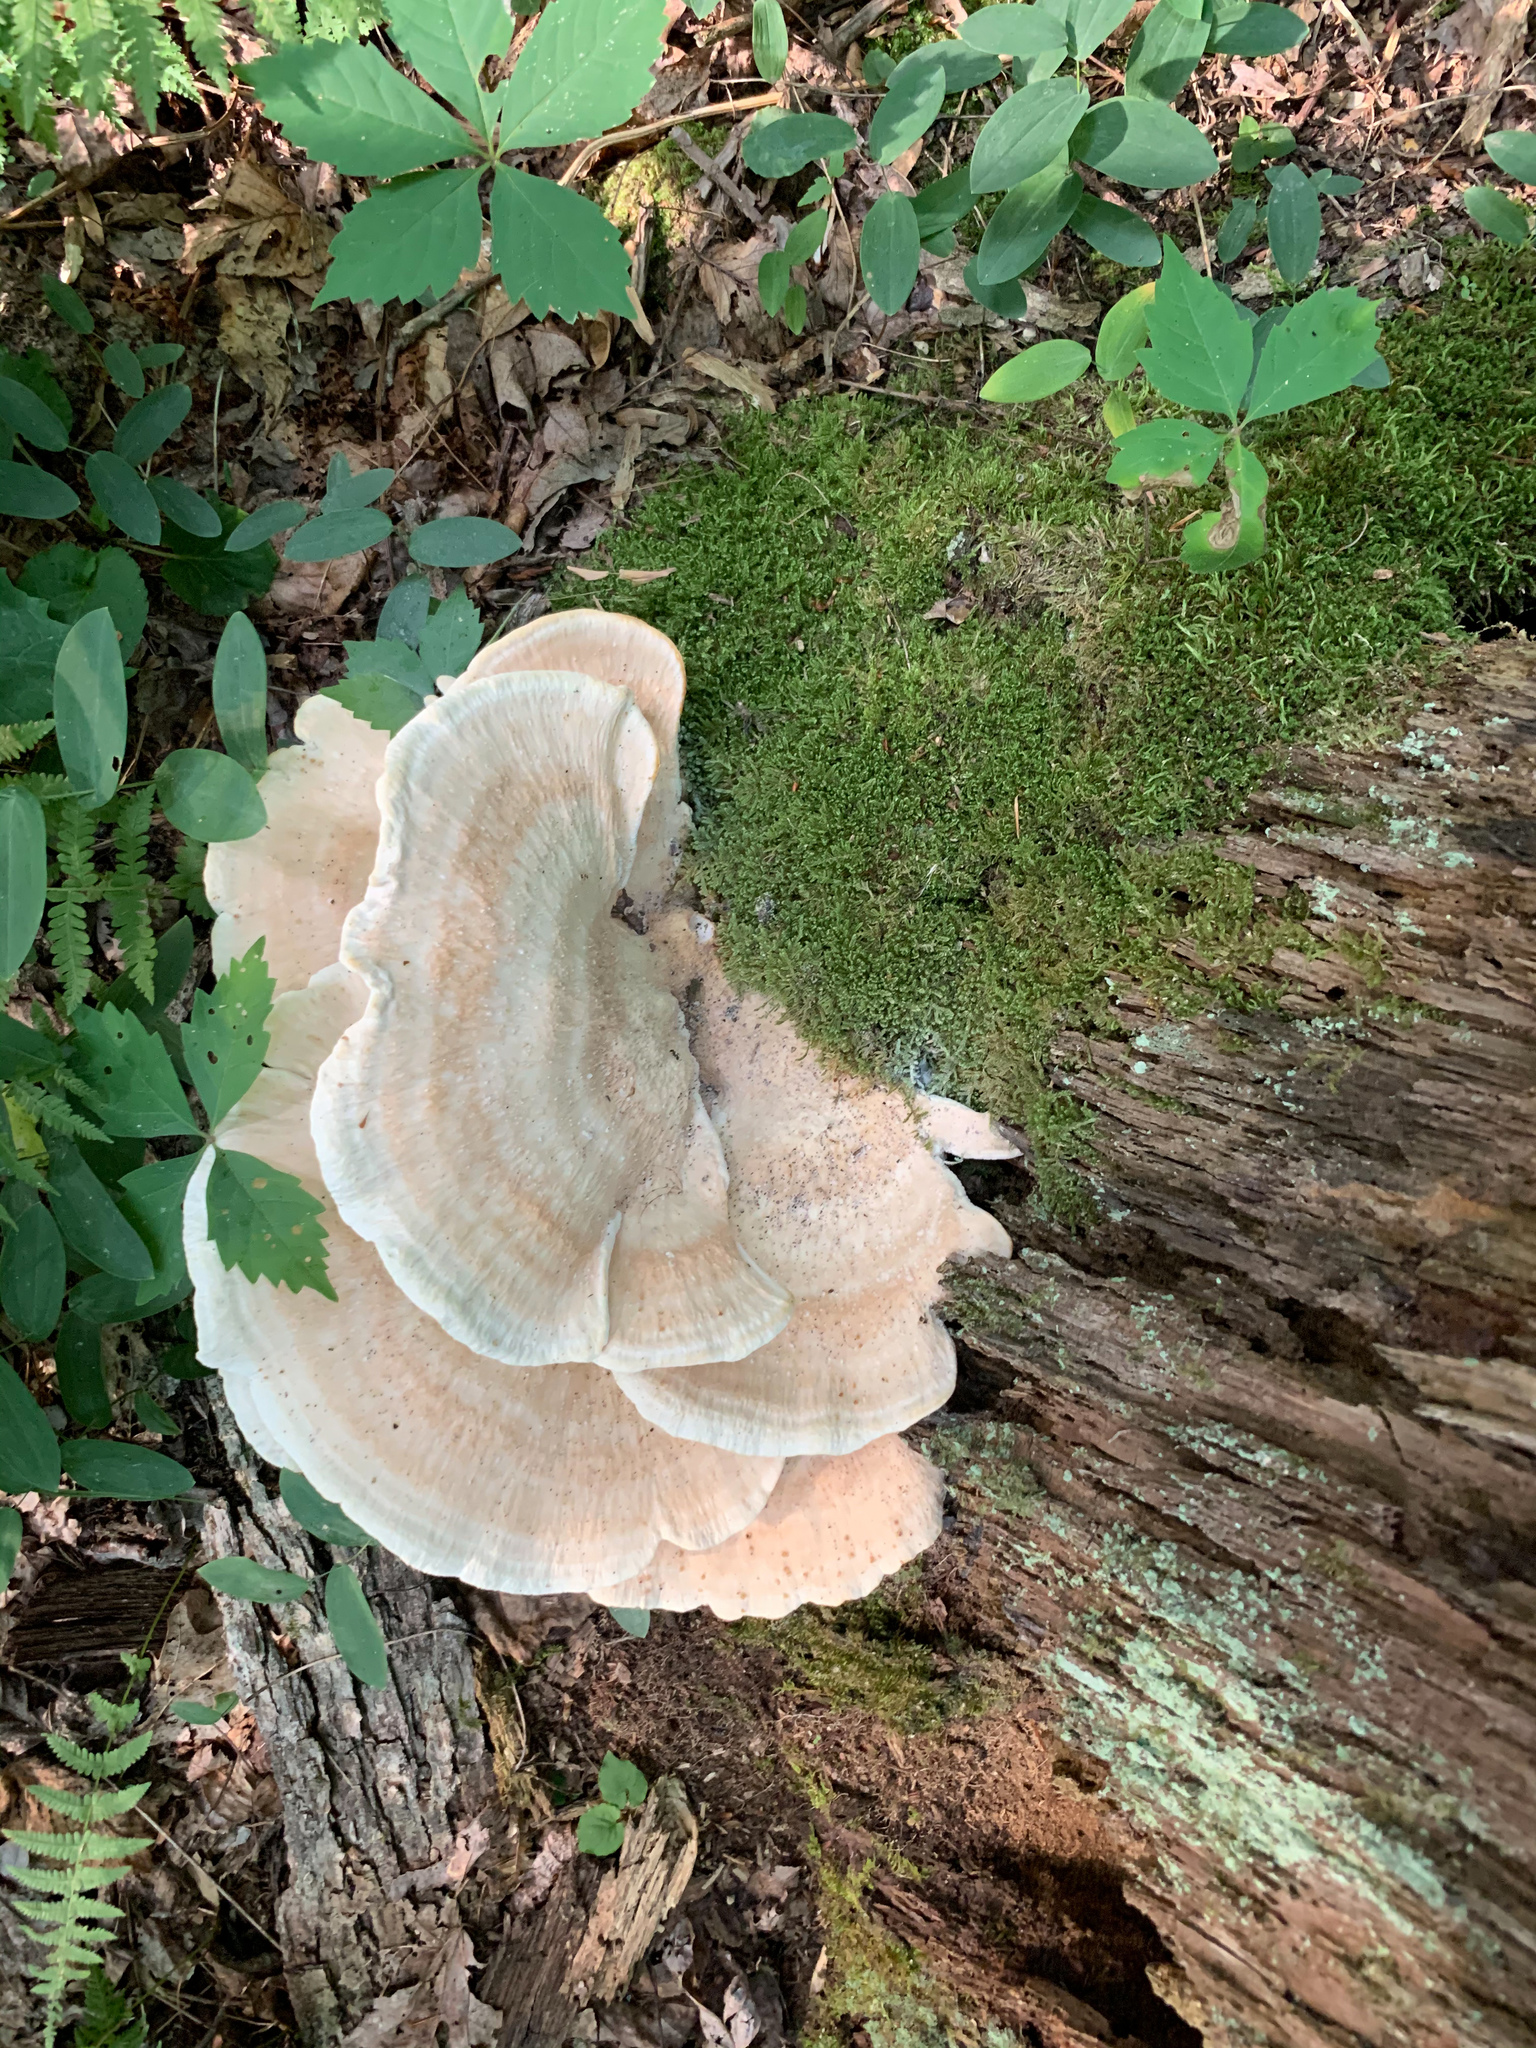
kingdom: Fungi
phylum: Basidiomycota
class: Agaricomycetes
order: Russulales
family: Bondarzewiaceae
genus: Bondarzewia
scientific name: Bondarzewia berkeleyi
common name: Berkeley's polypore
